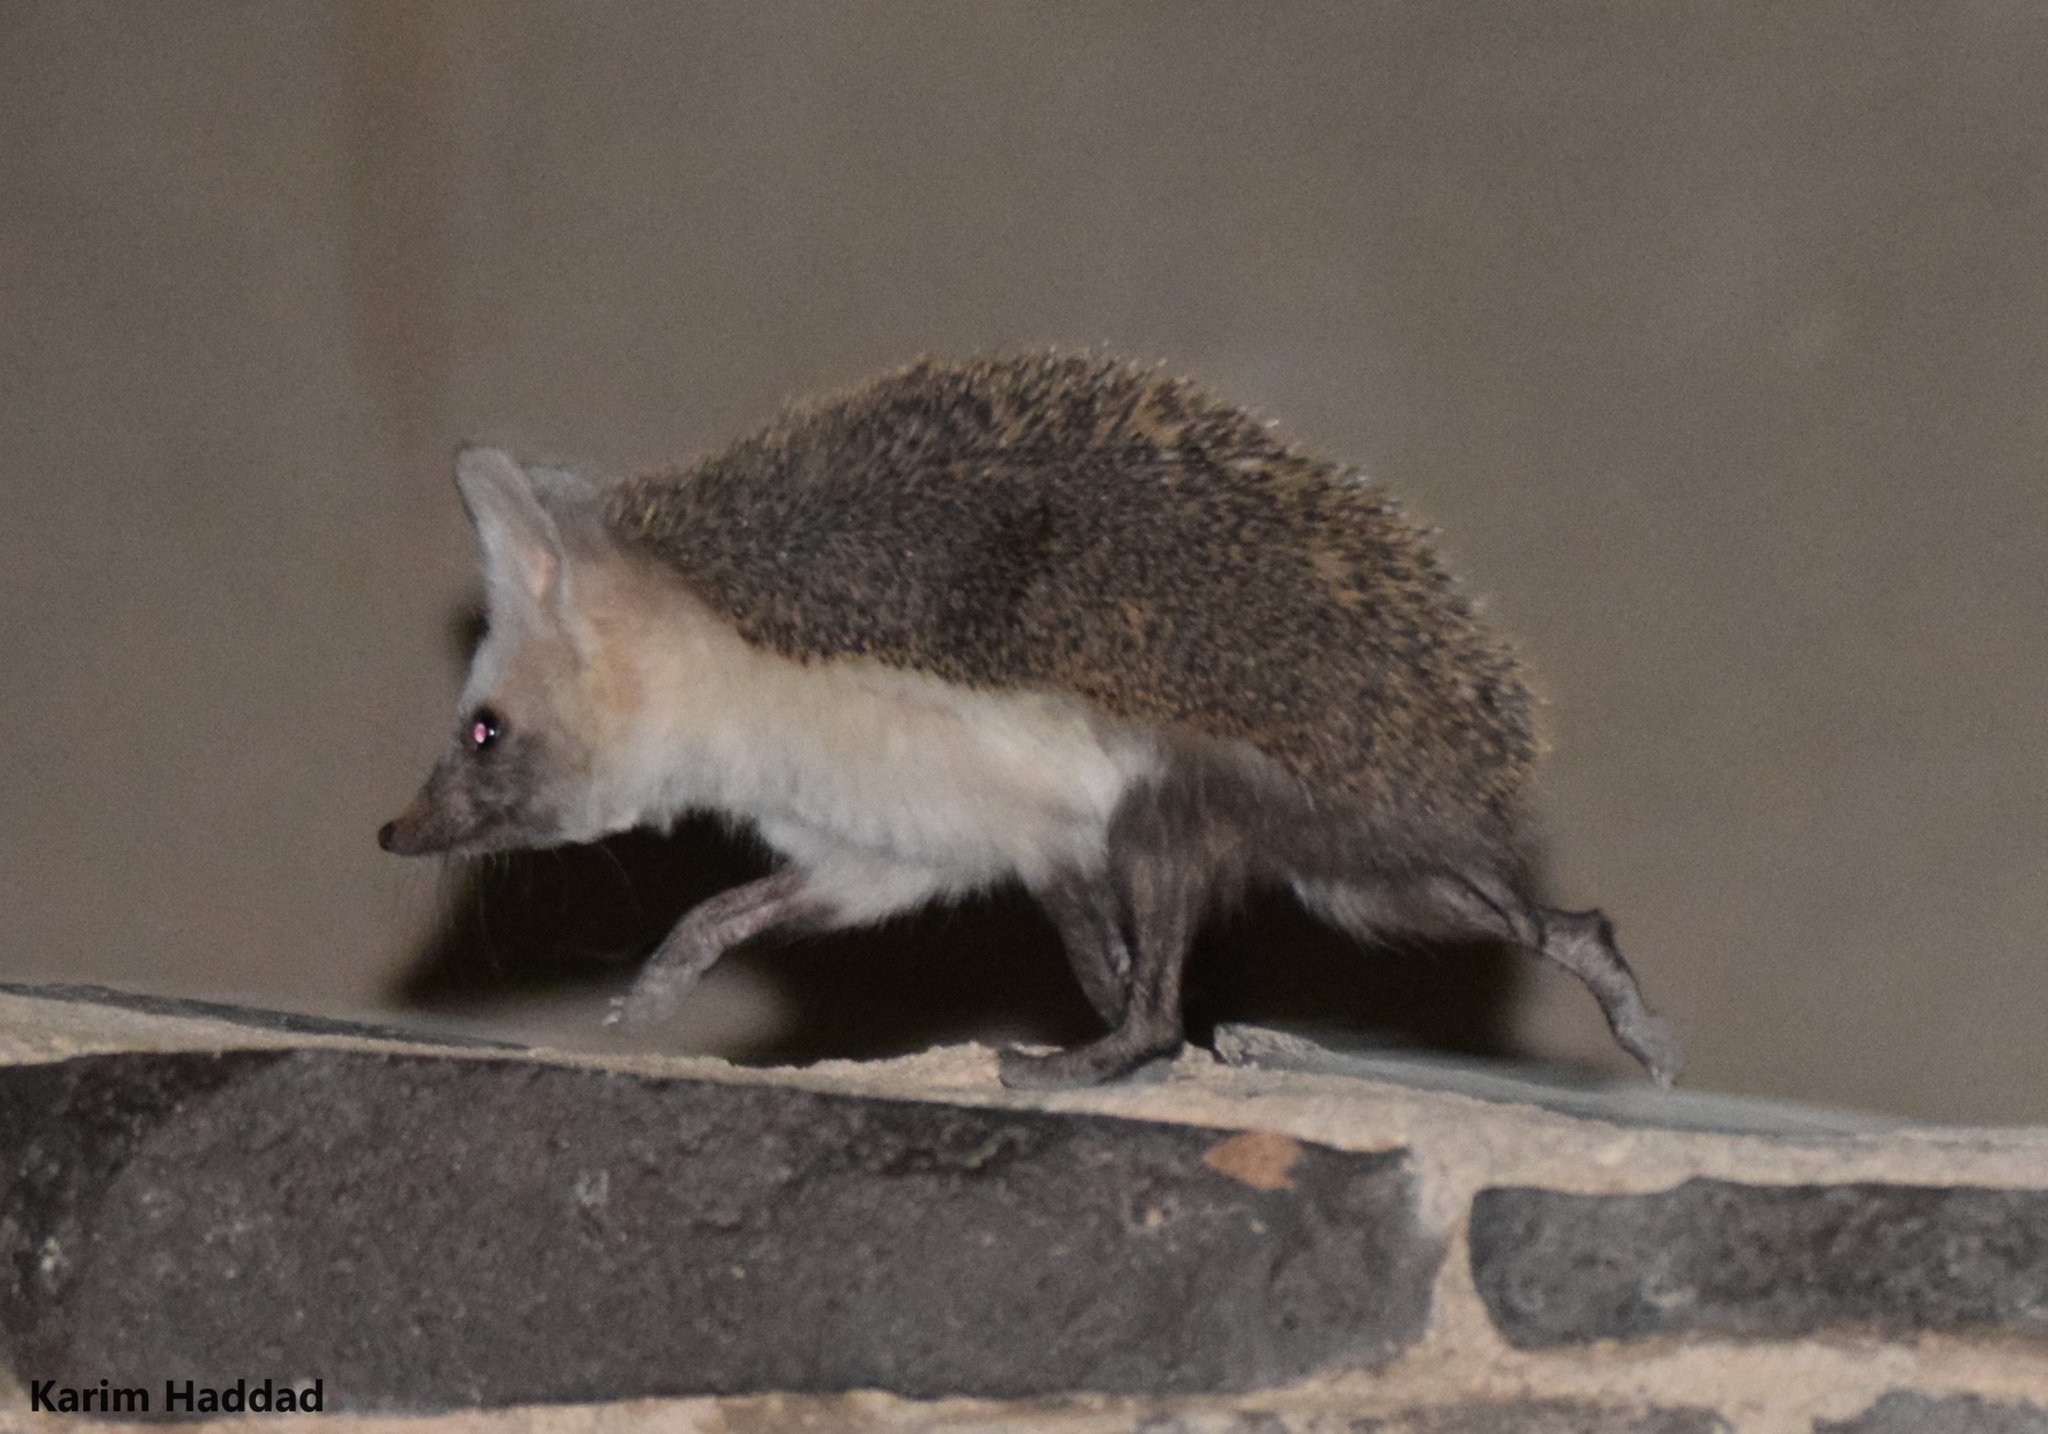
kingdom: Animalia
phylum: Chordata
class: Mammalia
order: Erinaceomorpha
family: Erinaceidae
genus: Paraechinus
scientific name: Paraechinus aethiopicus
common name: Desert hedgehog
